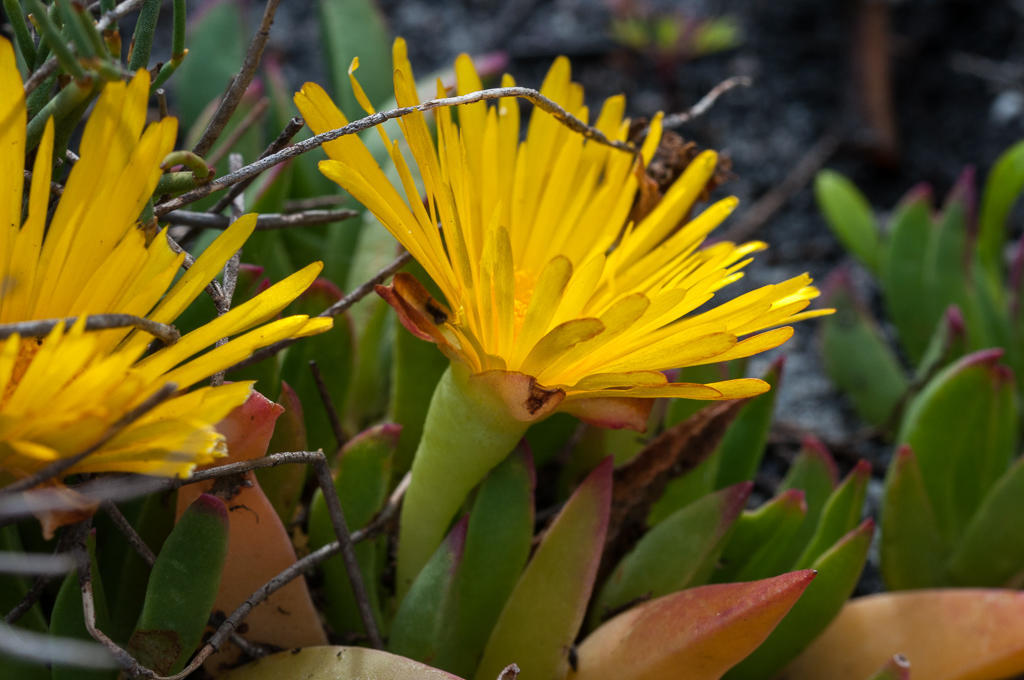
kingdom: Plantae
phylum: Tracheophyta
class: Magnoliopsida
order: Caryophyllales
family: Aizoaceae
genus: Lampranthus
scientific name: Lampranthus serpens
